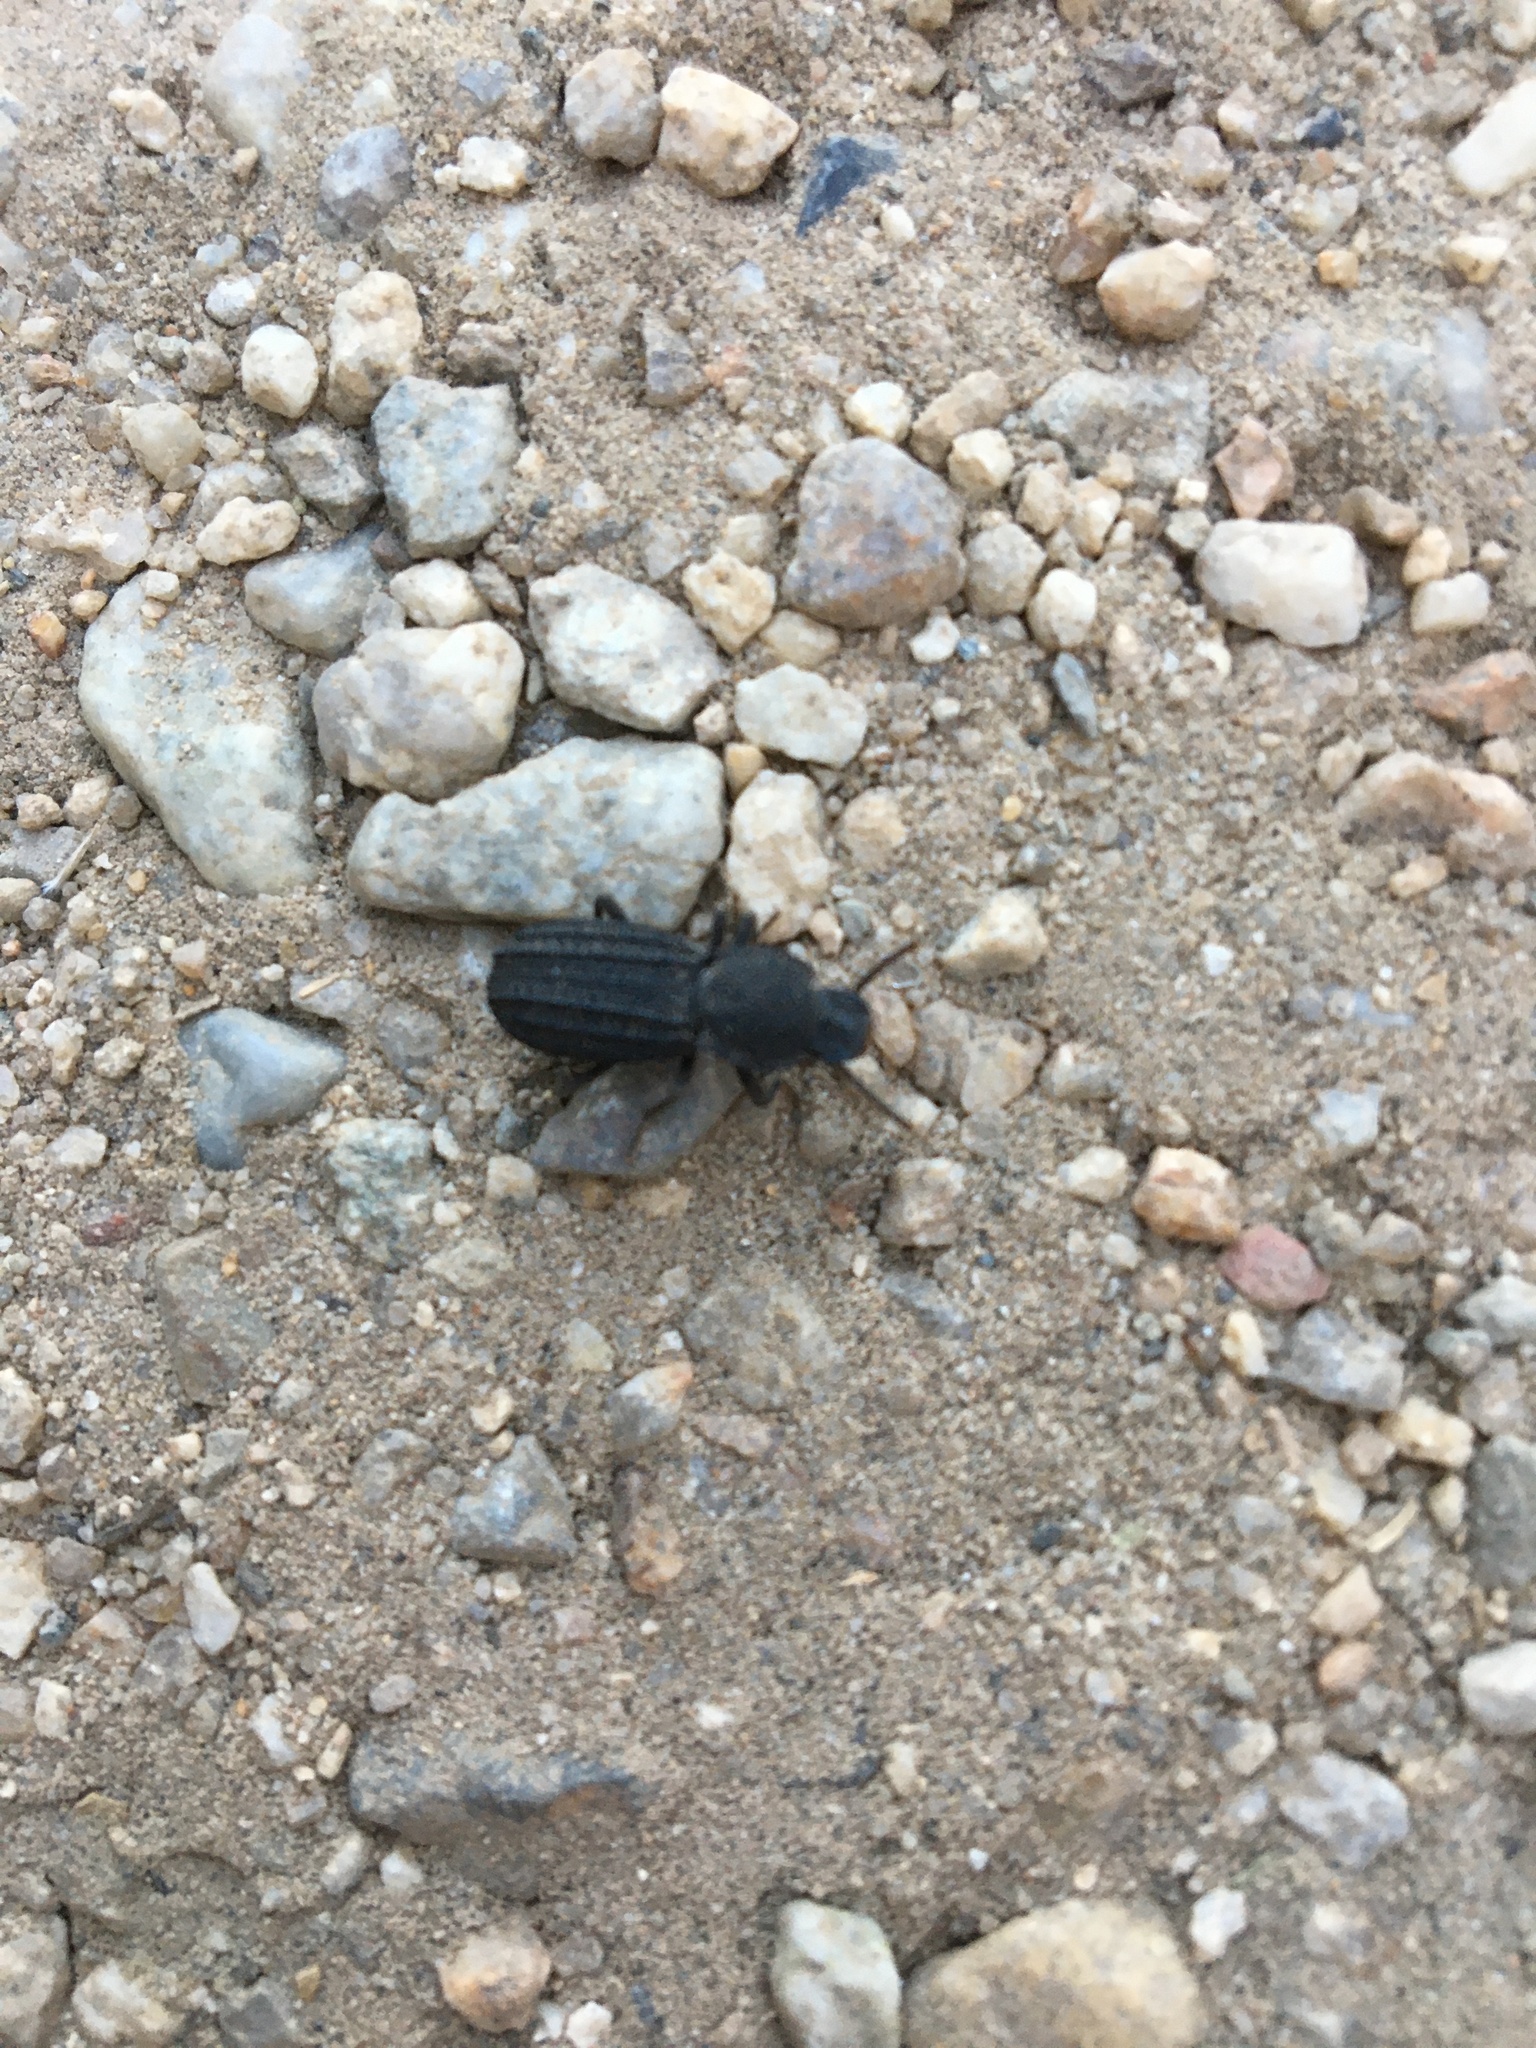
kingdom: Animalia
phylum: Arthropoda
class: Insecta
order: Coleoptera
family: Tenebrionidae
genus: Nyctoporis
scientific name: Nyctoporis carinata
